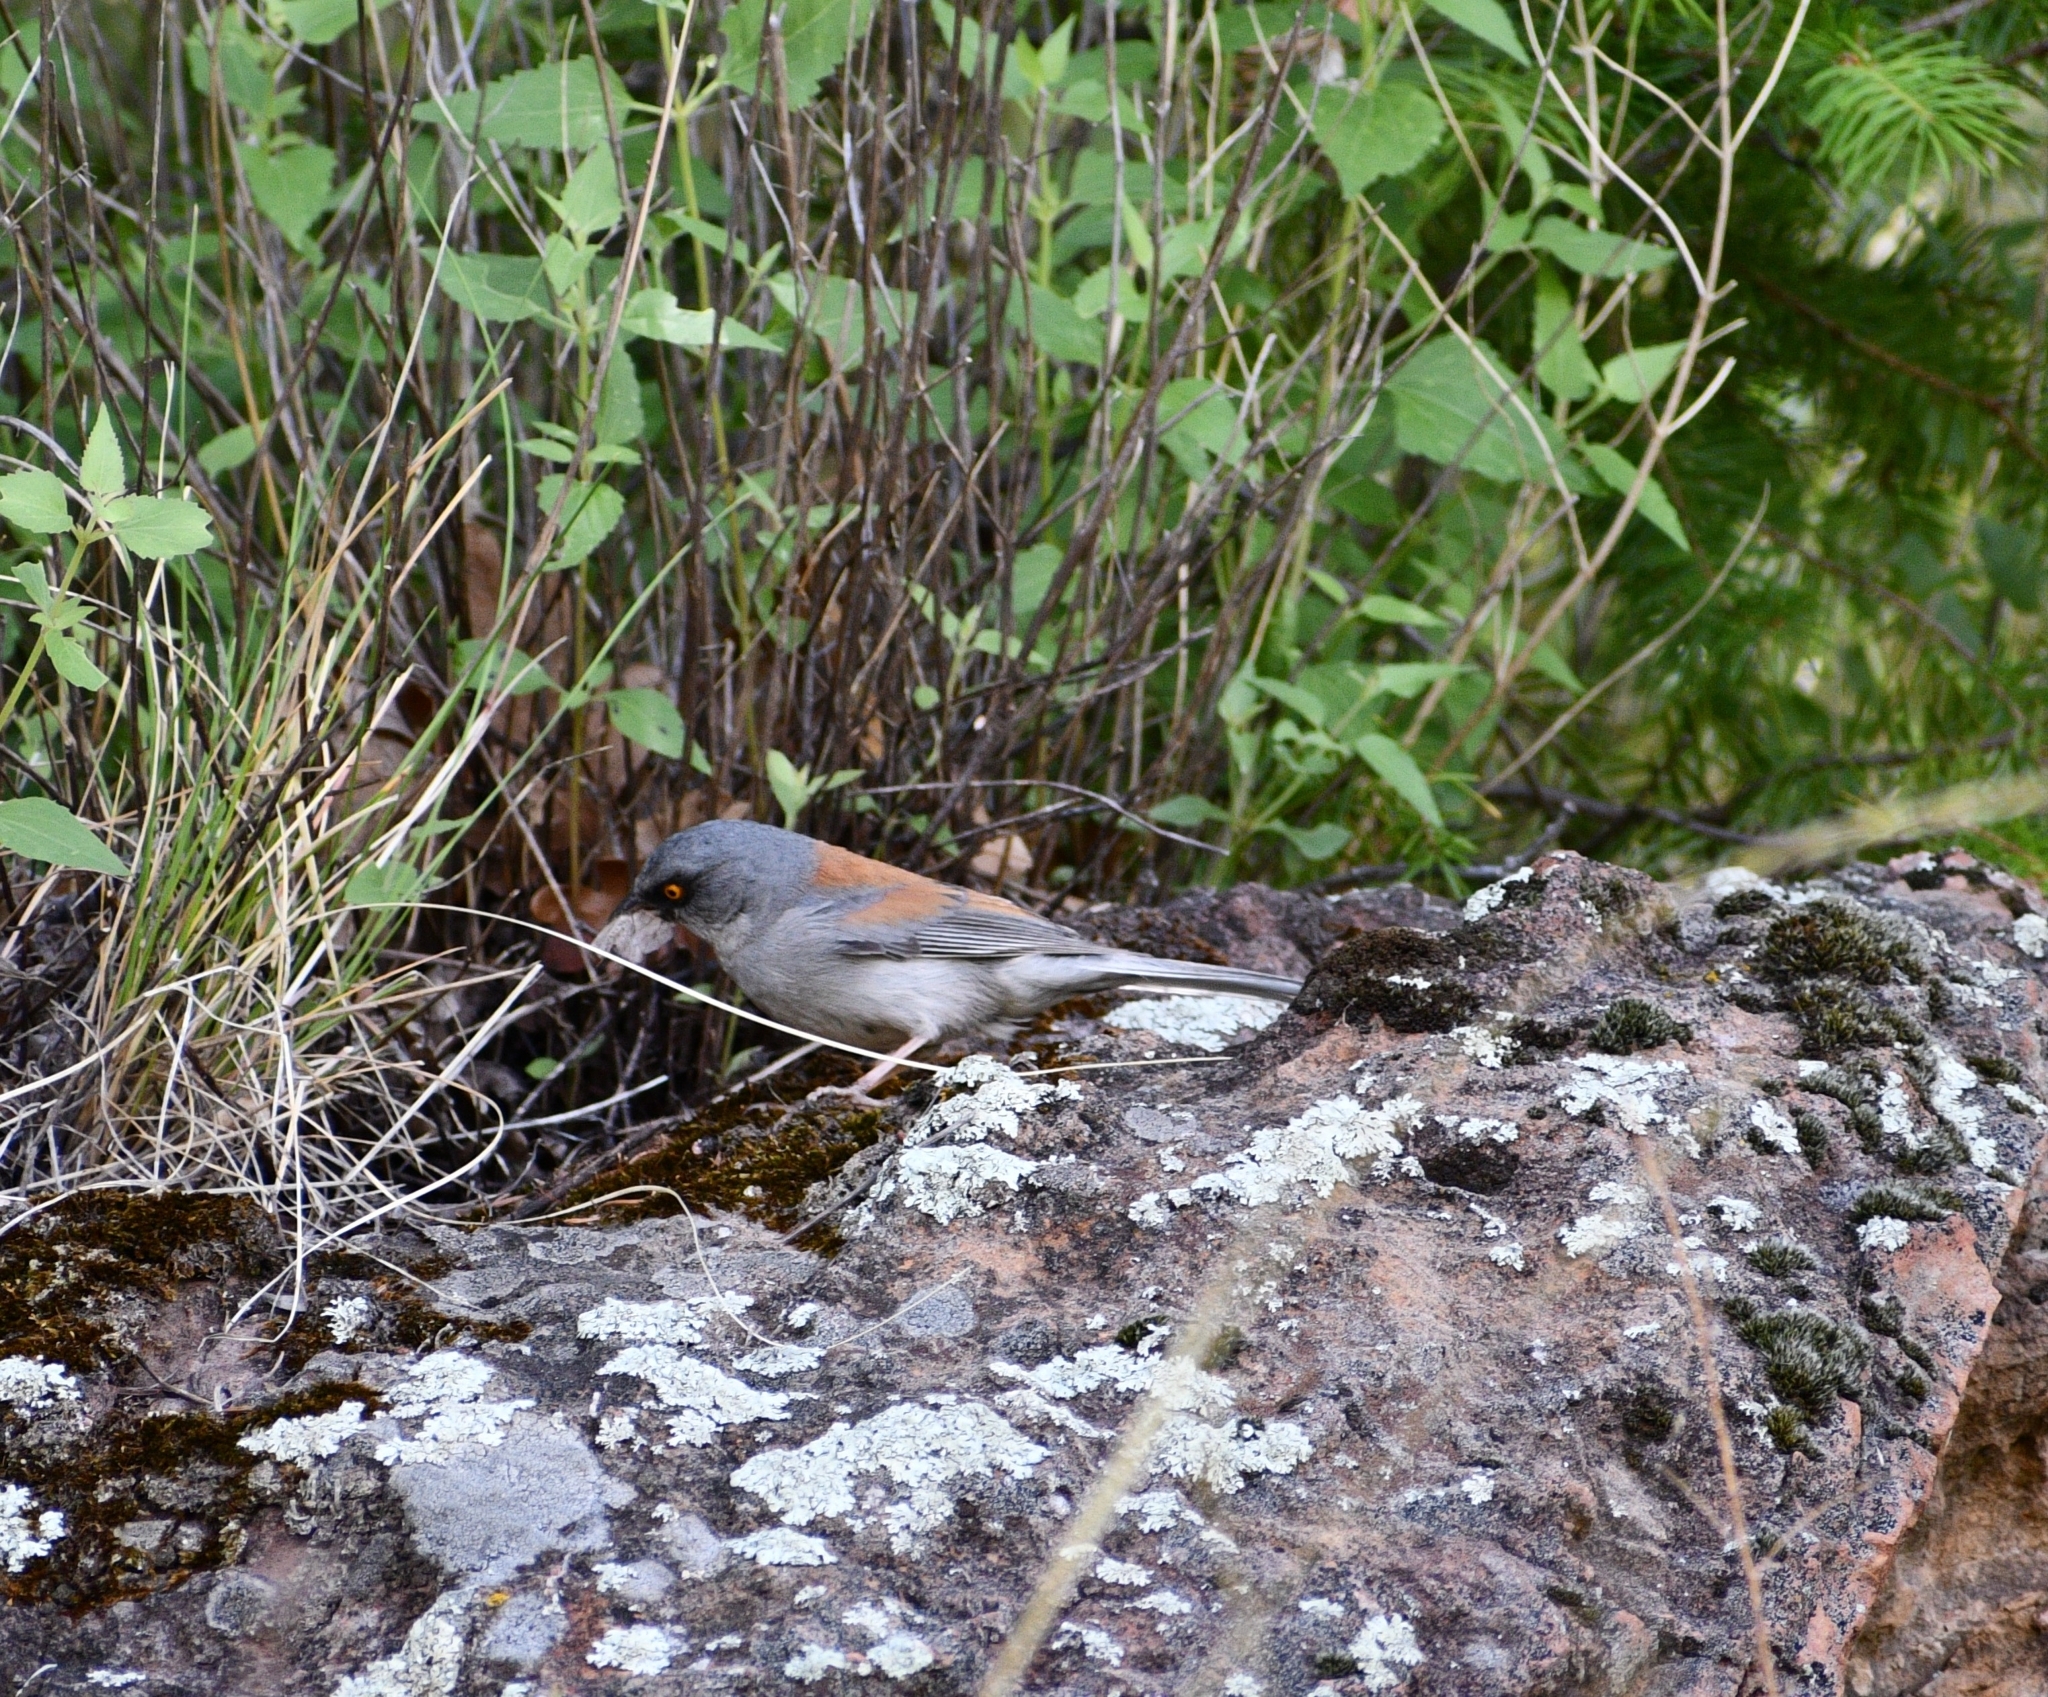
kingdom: Animalia
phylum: Chordata
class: Aves
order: Passeriformes
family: Passerellidae
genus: Junco
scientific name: Junco phaeonotus
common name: Yellow-eyed junco
